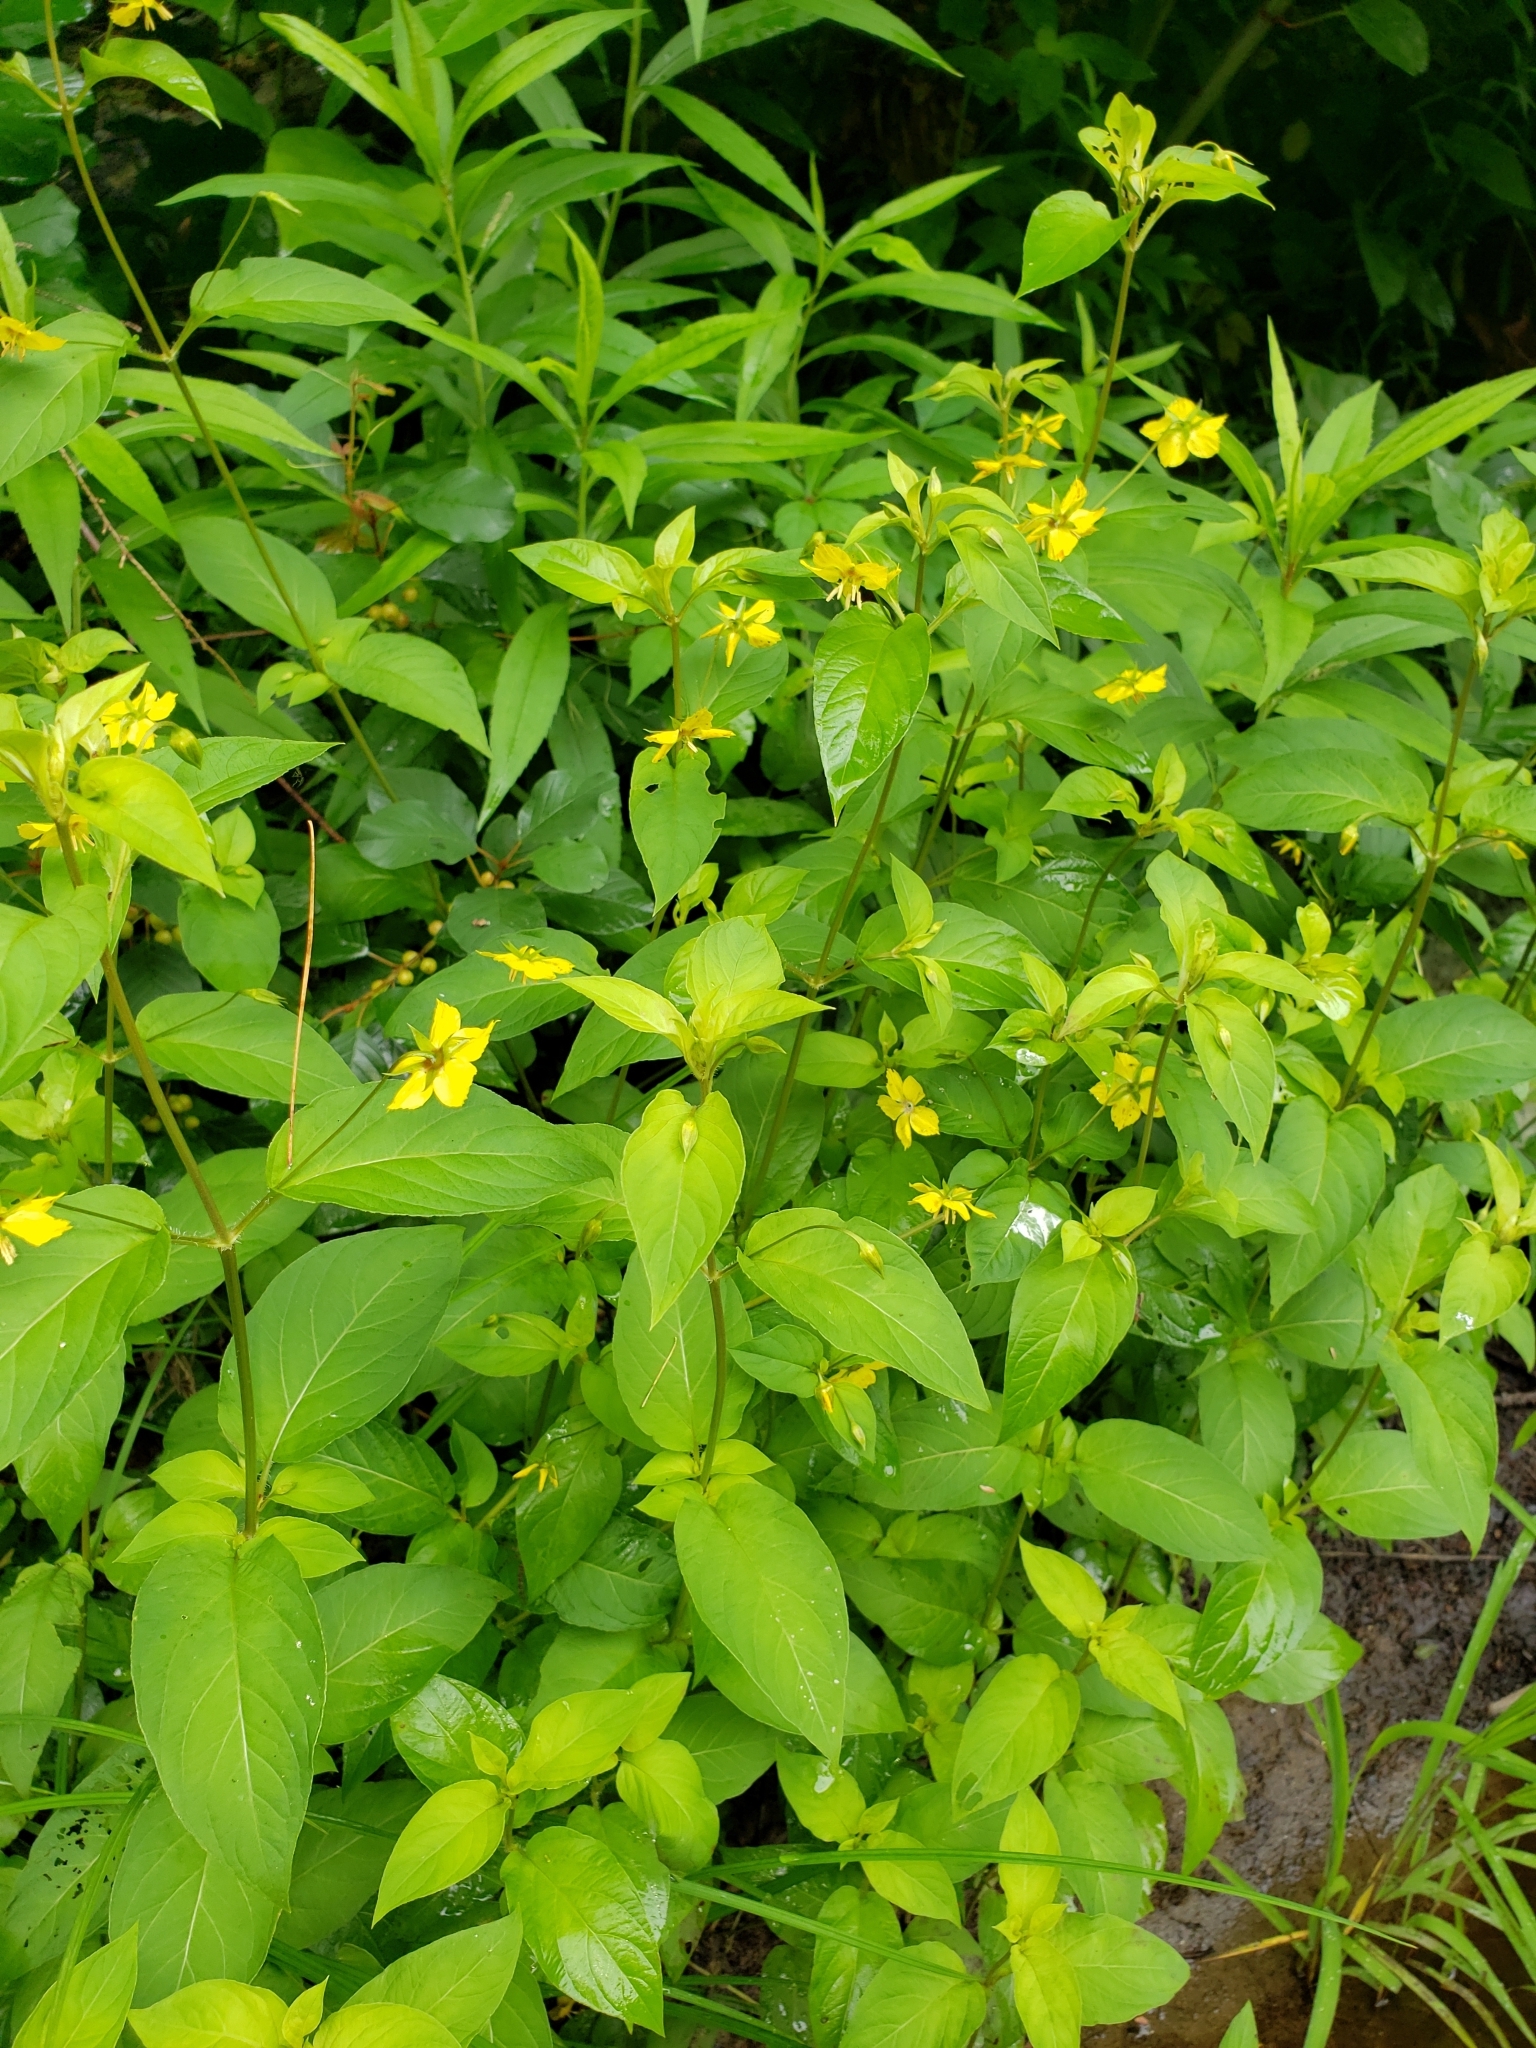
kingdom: Plantae
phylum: Tracheophyta
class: Magnoliopsida
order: Ericales
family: Primulaceae
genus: Lysimachia
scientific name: Lysimachia ciliata
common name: Fringed loosestrife
